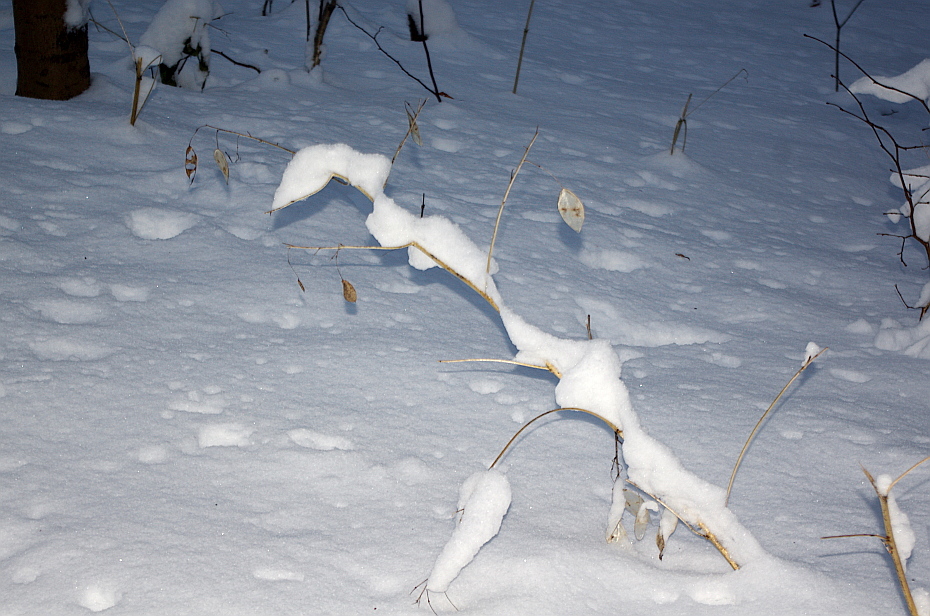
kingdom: Plantae
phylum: Tracheophyta
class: Magnoliopsida
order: Brassicales
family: Brassicaceae
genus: Lunaria
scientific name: Lunaria rediviva
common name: Perennial honesty
